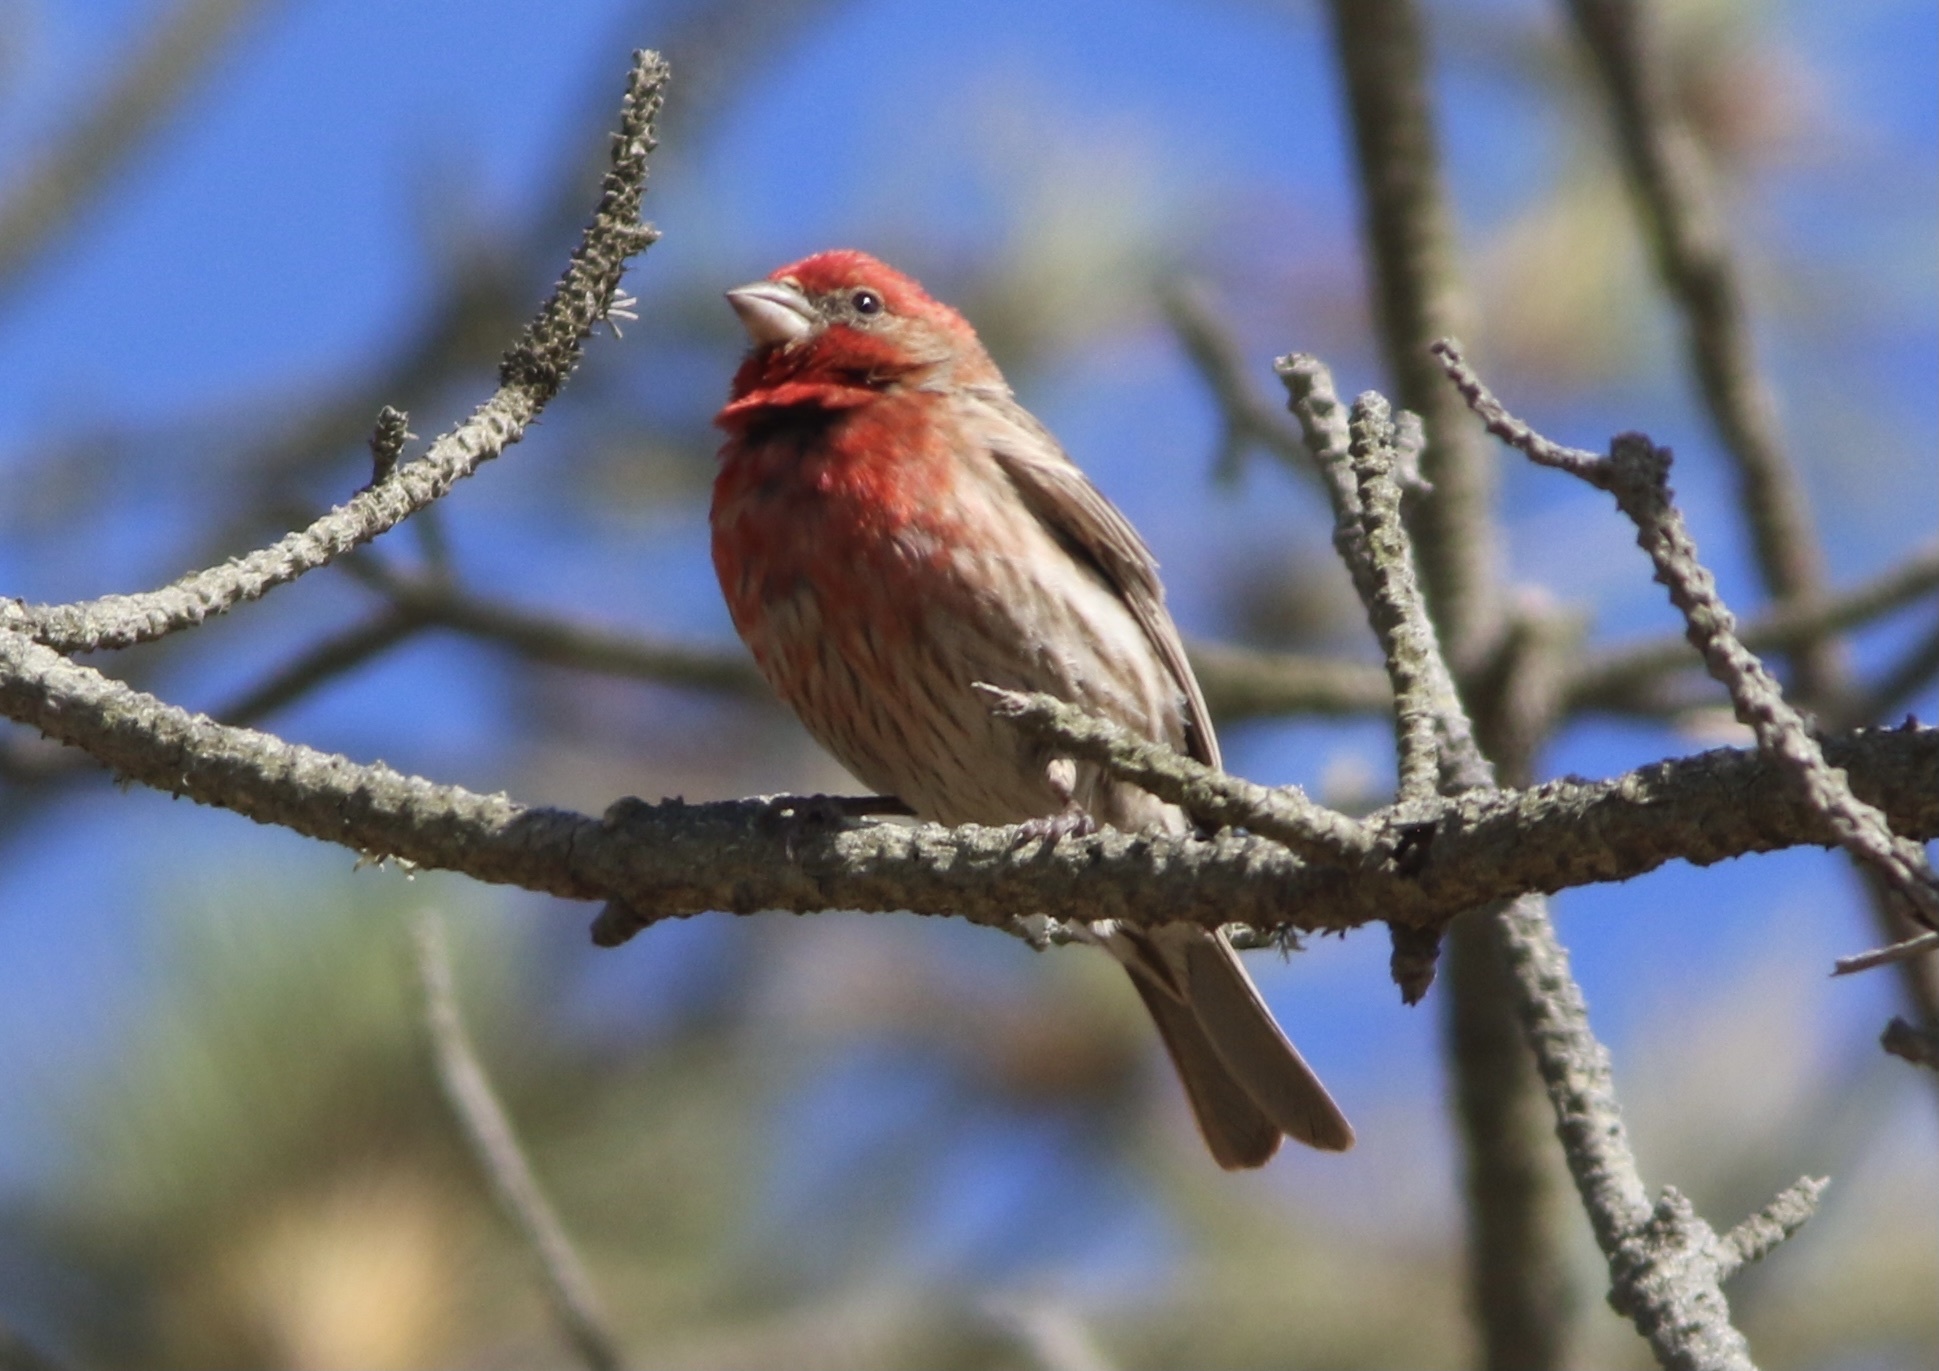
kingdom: Animalia
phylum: Chordata
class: Aves
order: Passeriformes
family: Fringillidae
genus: Haemorhous
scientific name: Haemorhous mexicanus
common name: House finch
